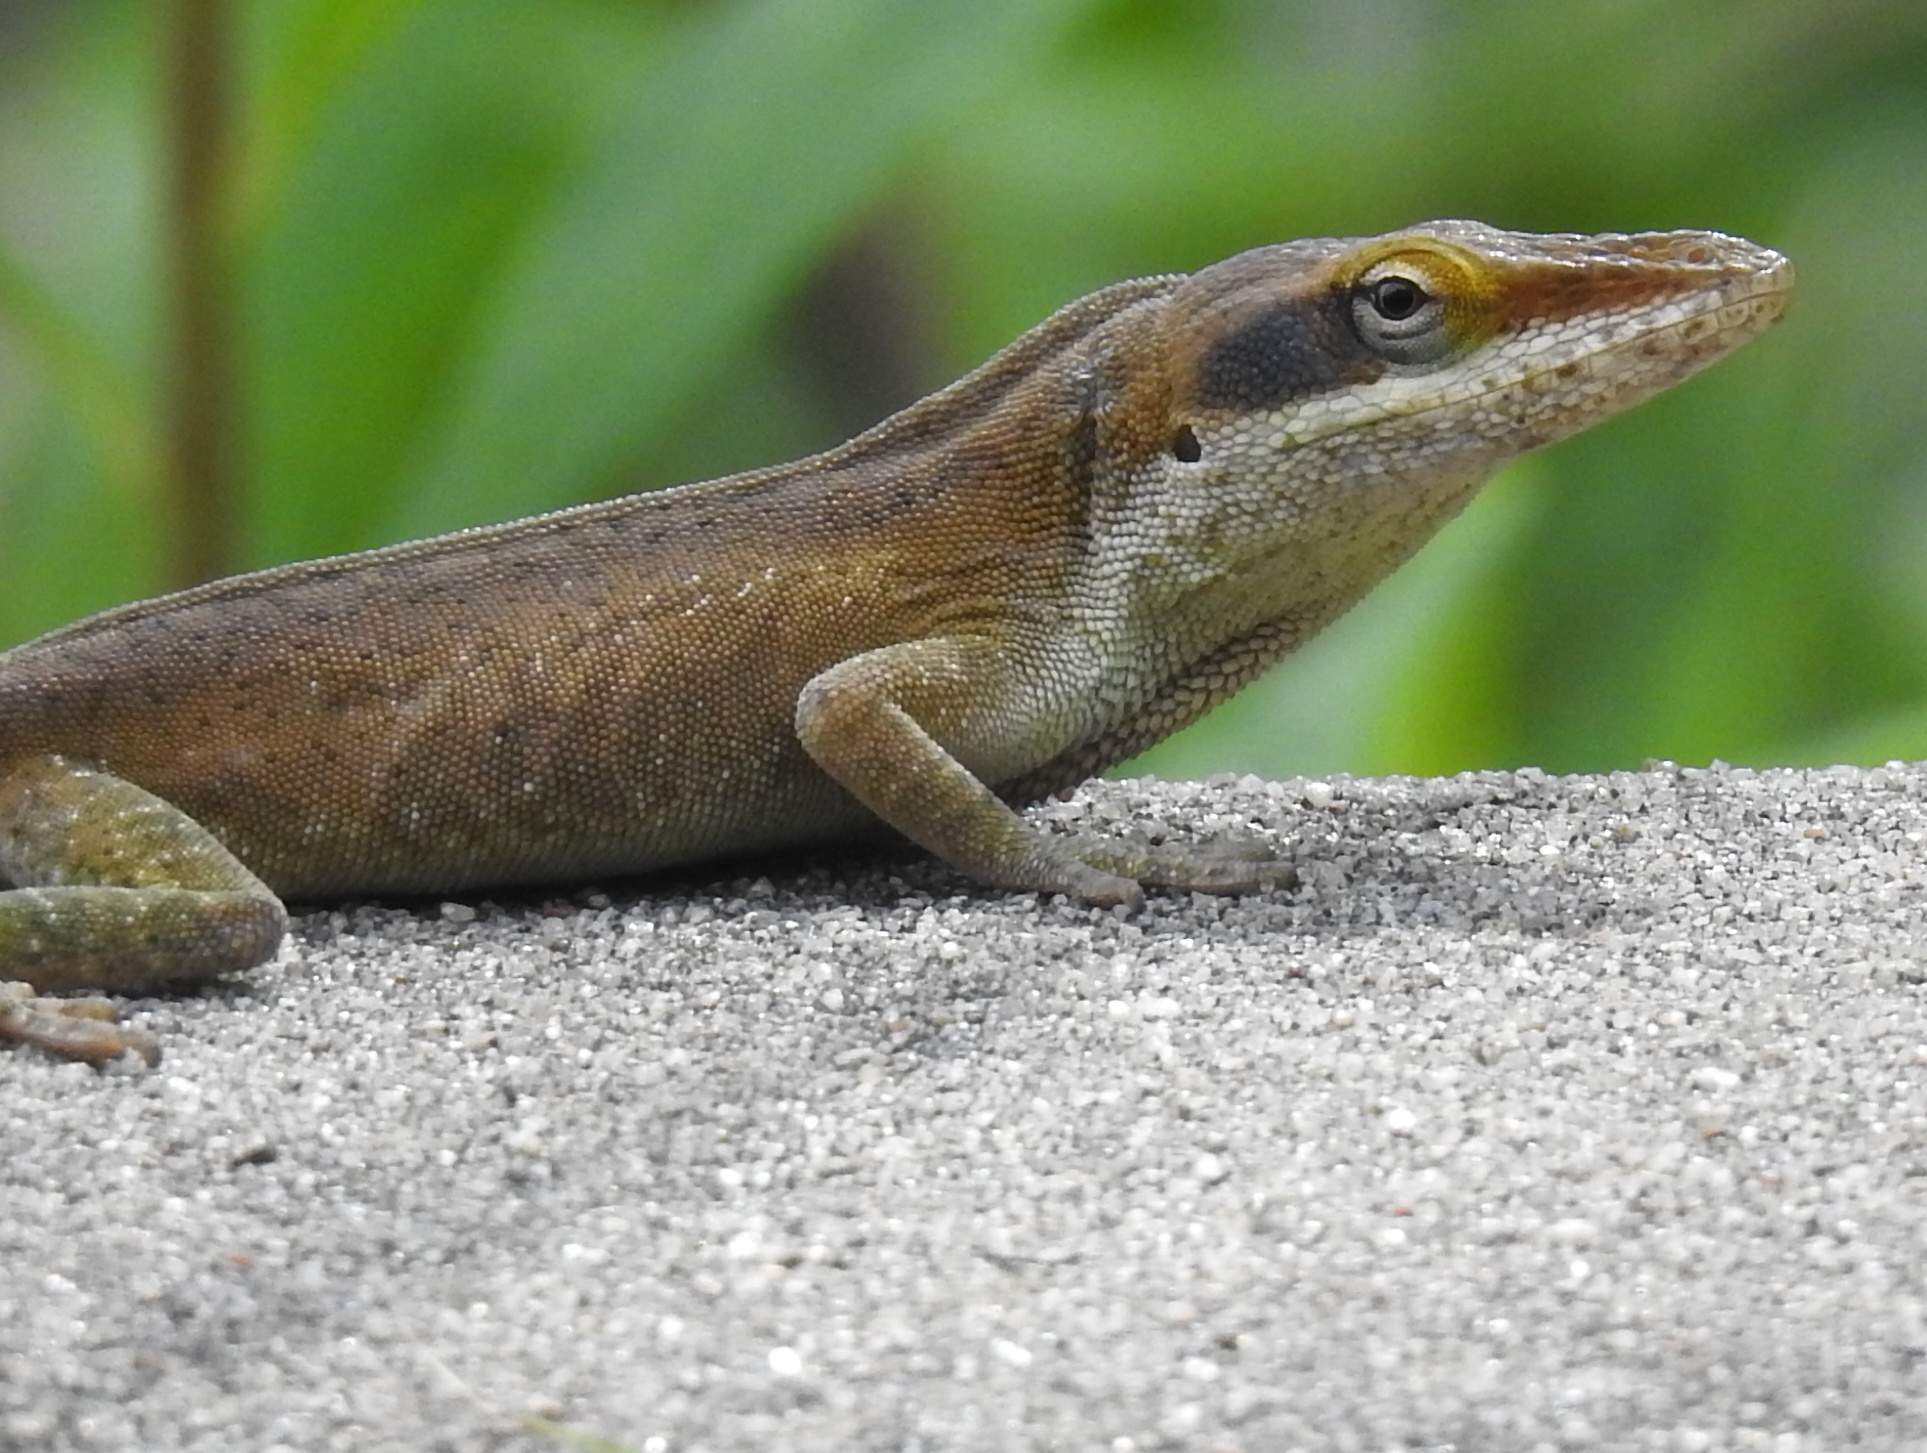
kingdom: Animalia
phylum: Chordata
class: Squamata
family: Dactyloidae
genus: Anolis
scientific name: Anolis carolinensis
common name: Green anole
